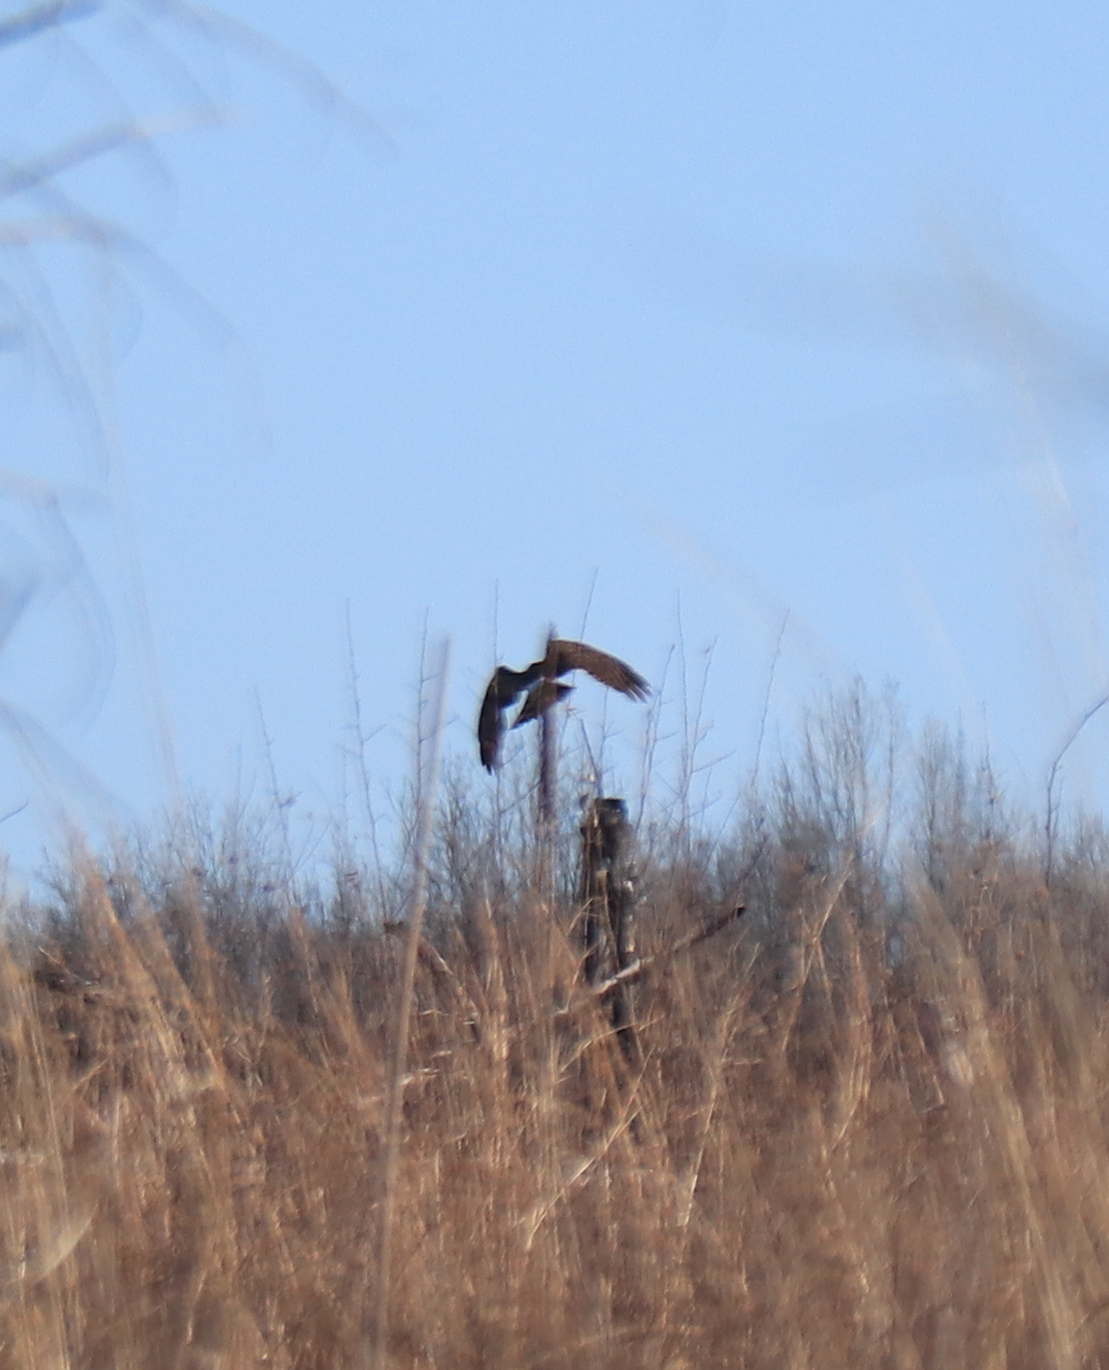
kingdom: Animalia
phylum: Chordata
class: Aves
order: Accipitriformes
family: Accipitridae
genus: Circus
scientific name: Circus cyaneus
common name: Hen harrier
